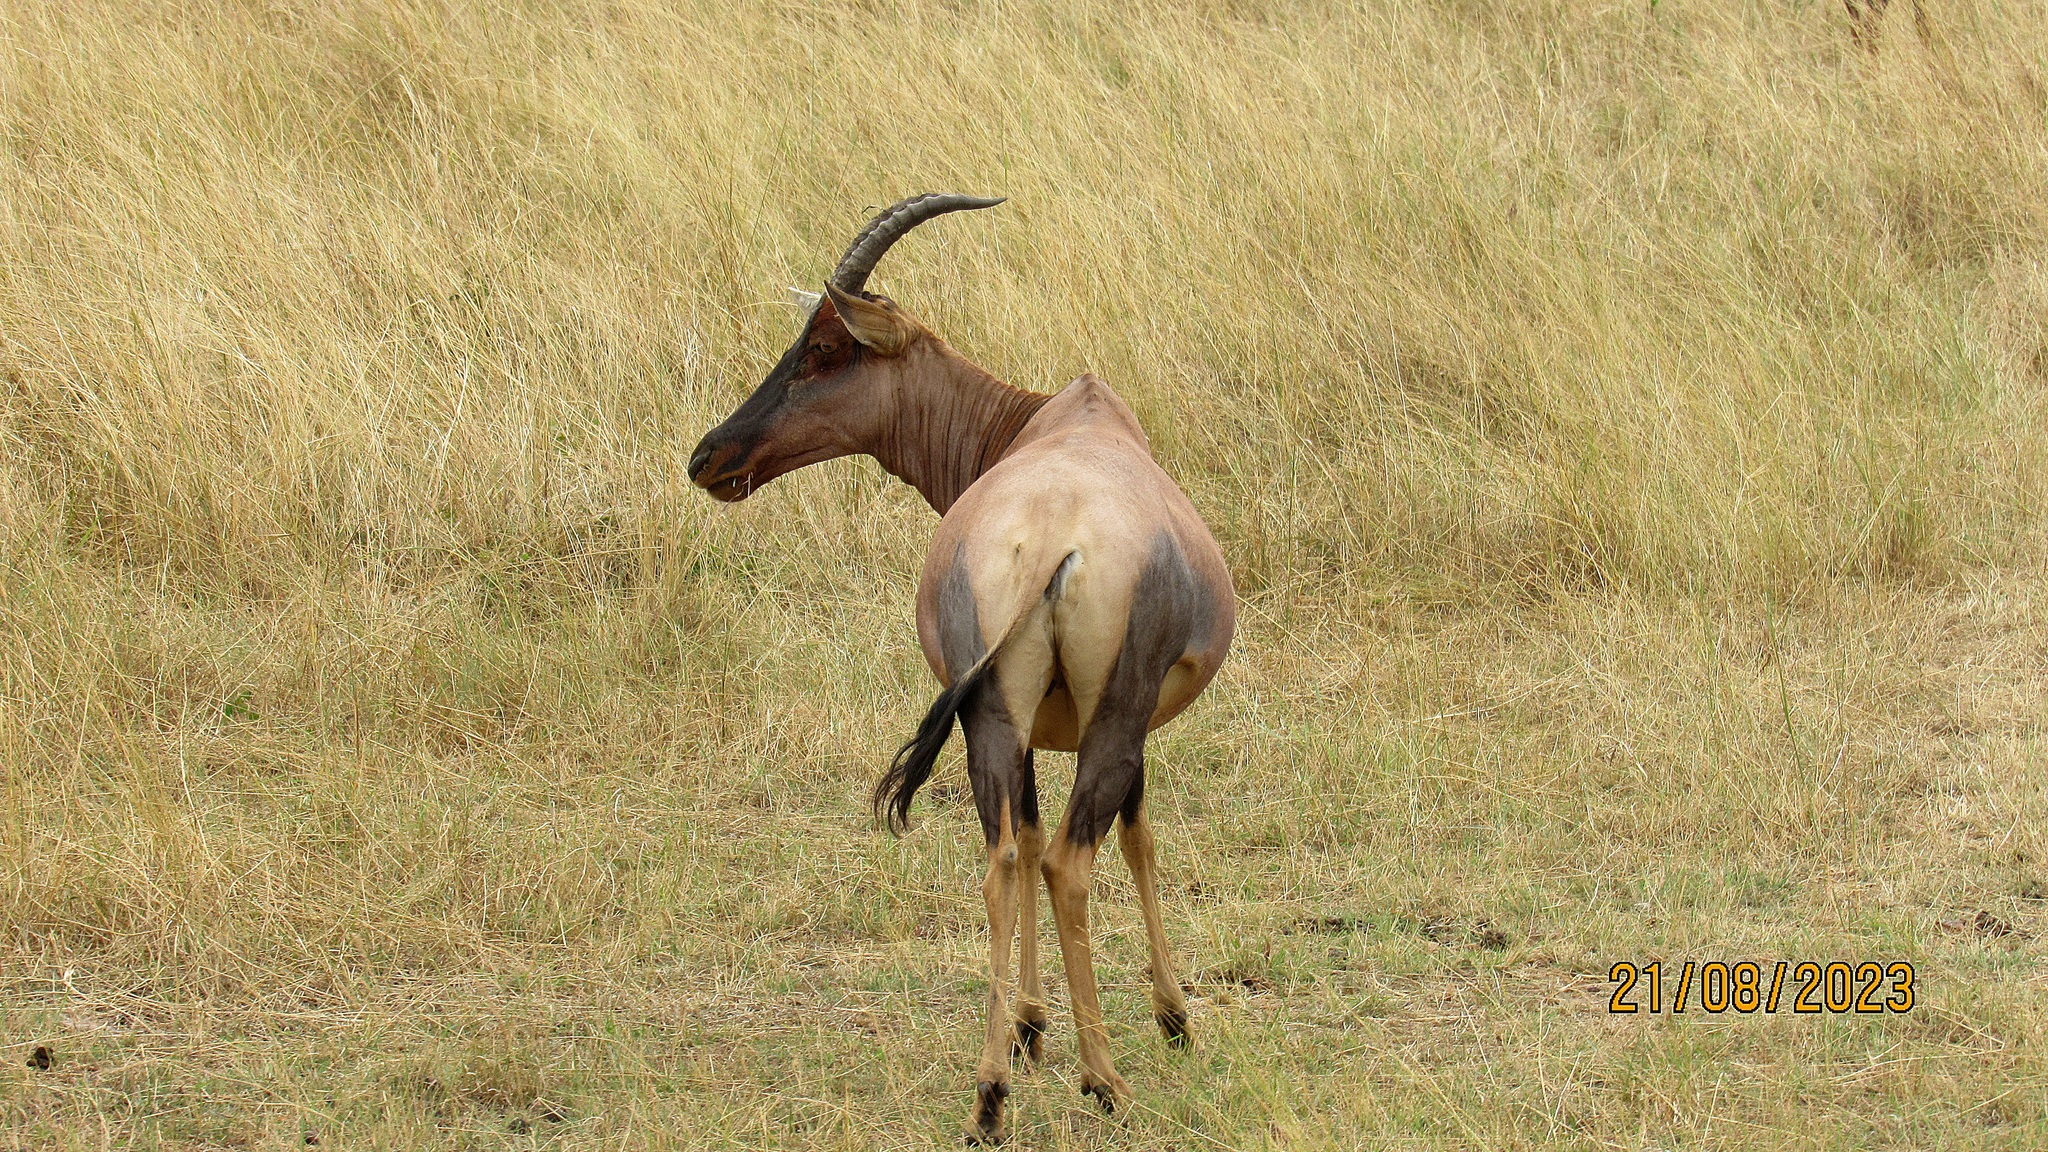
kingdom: Animalia
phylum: Chordata
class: Mammalia
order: Artiodactyla
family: Bovidae
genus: Damaliscus
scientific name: Damaliscus korrigum
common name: Topi
